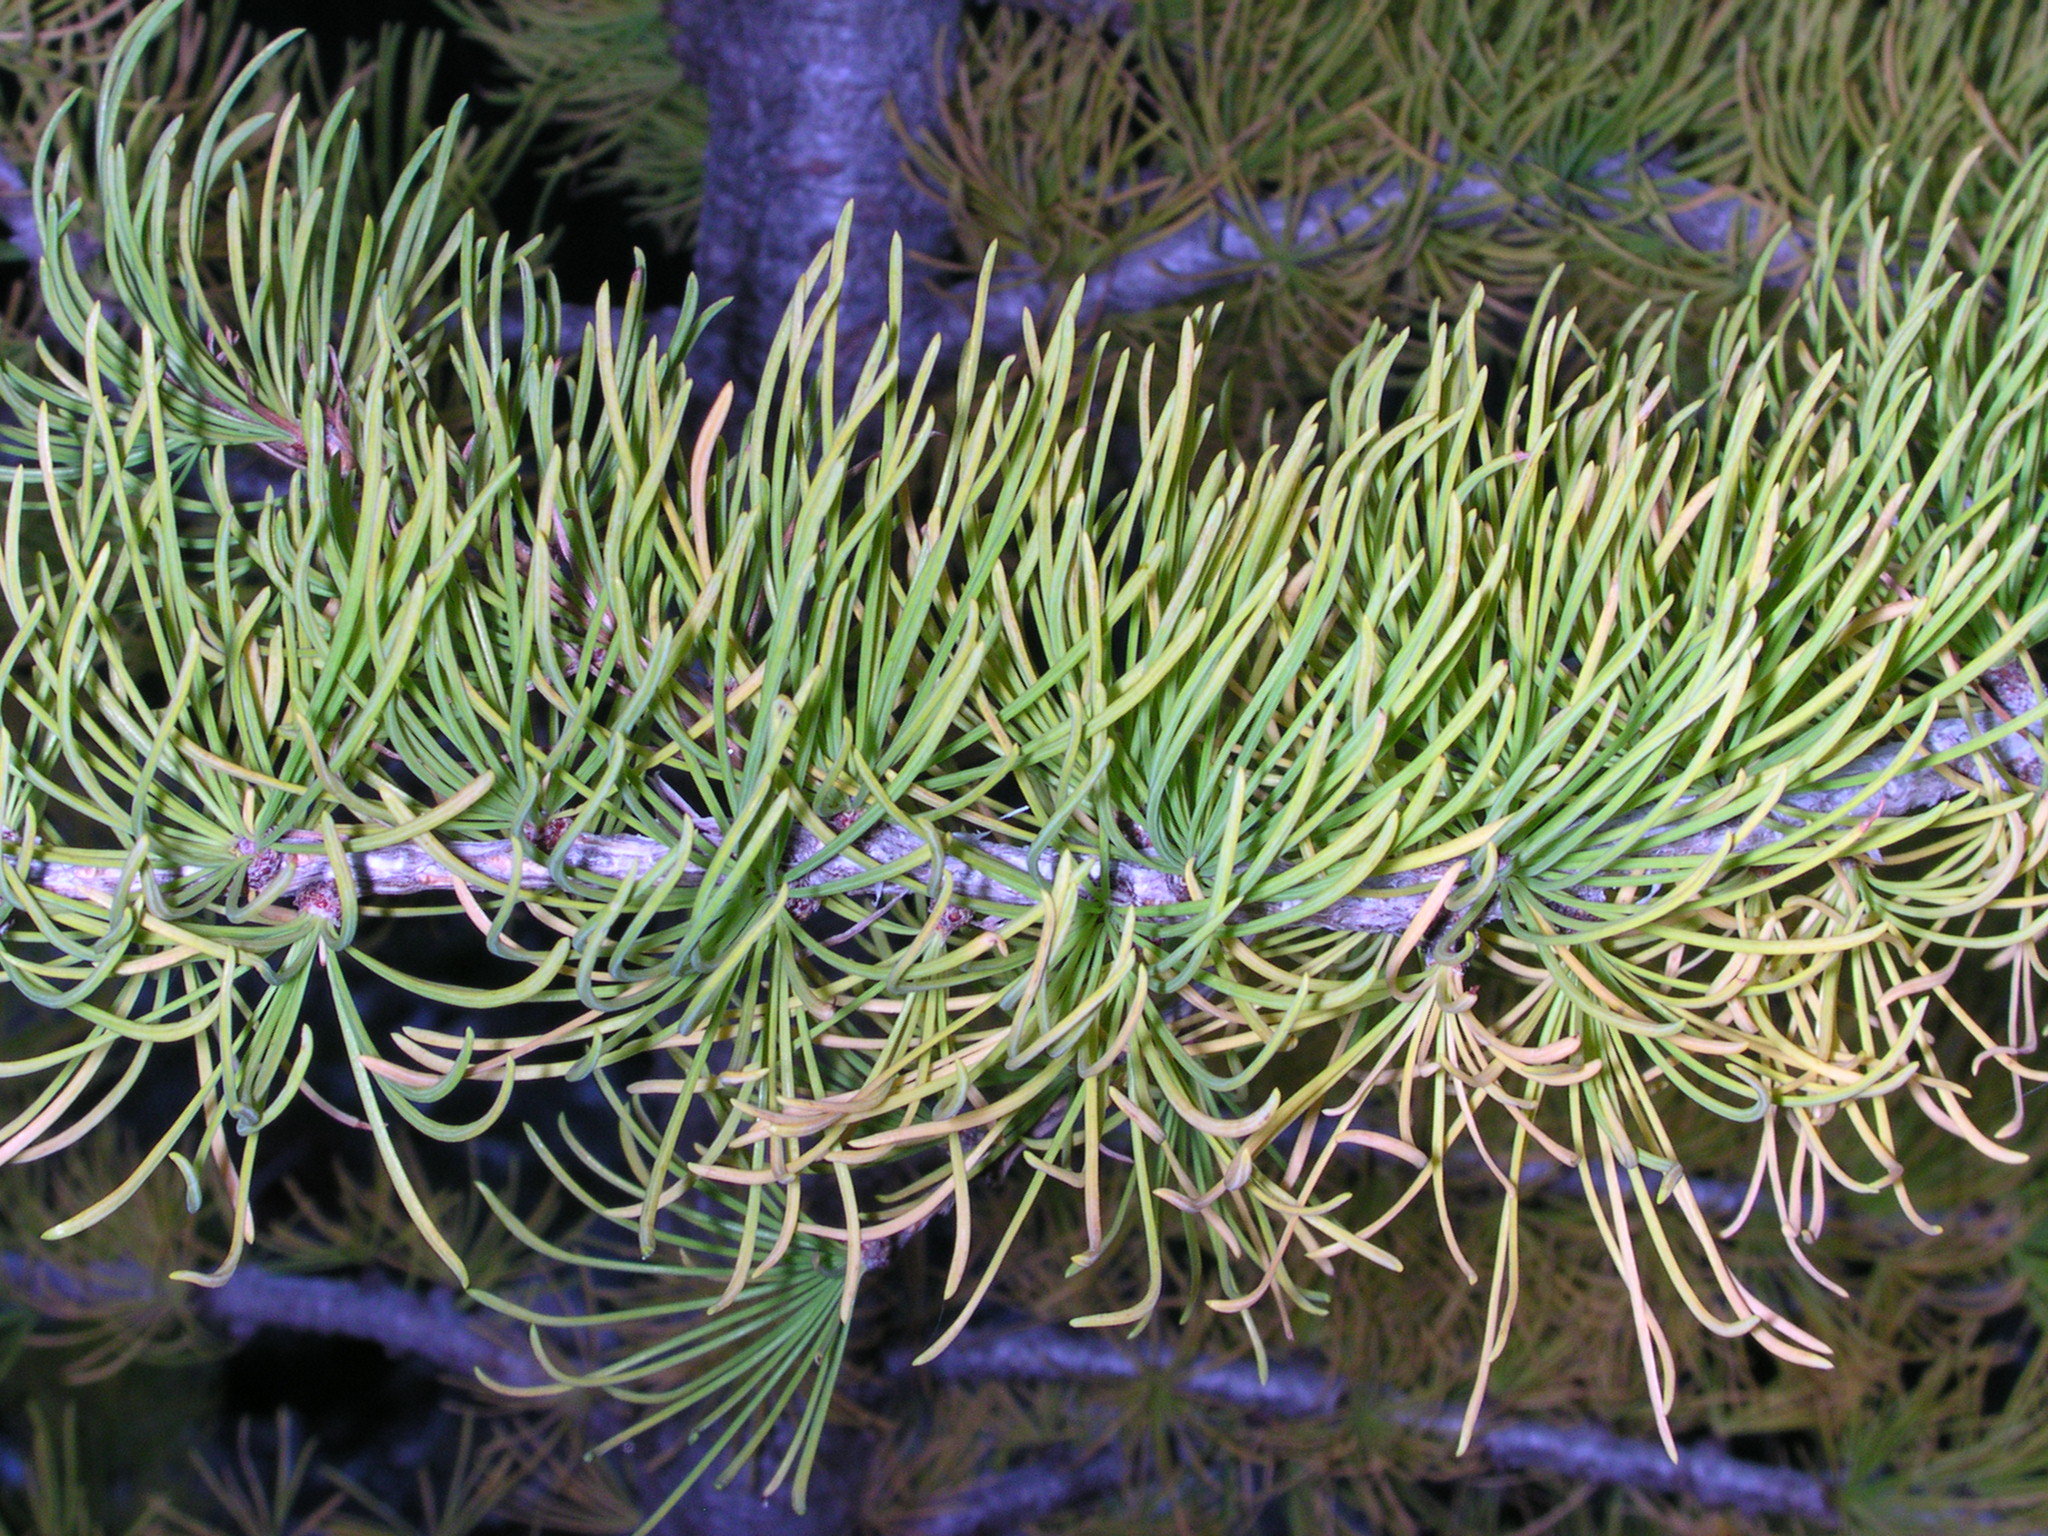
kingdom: Plantae
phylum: Tracheophyta
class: Pinopsida
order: Pinales
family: Pinaceae
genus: Larix
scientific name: Larix lyallii
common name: Alpine larch
